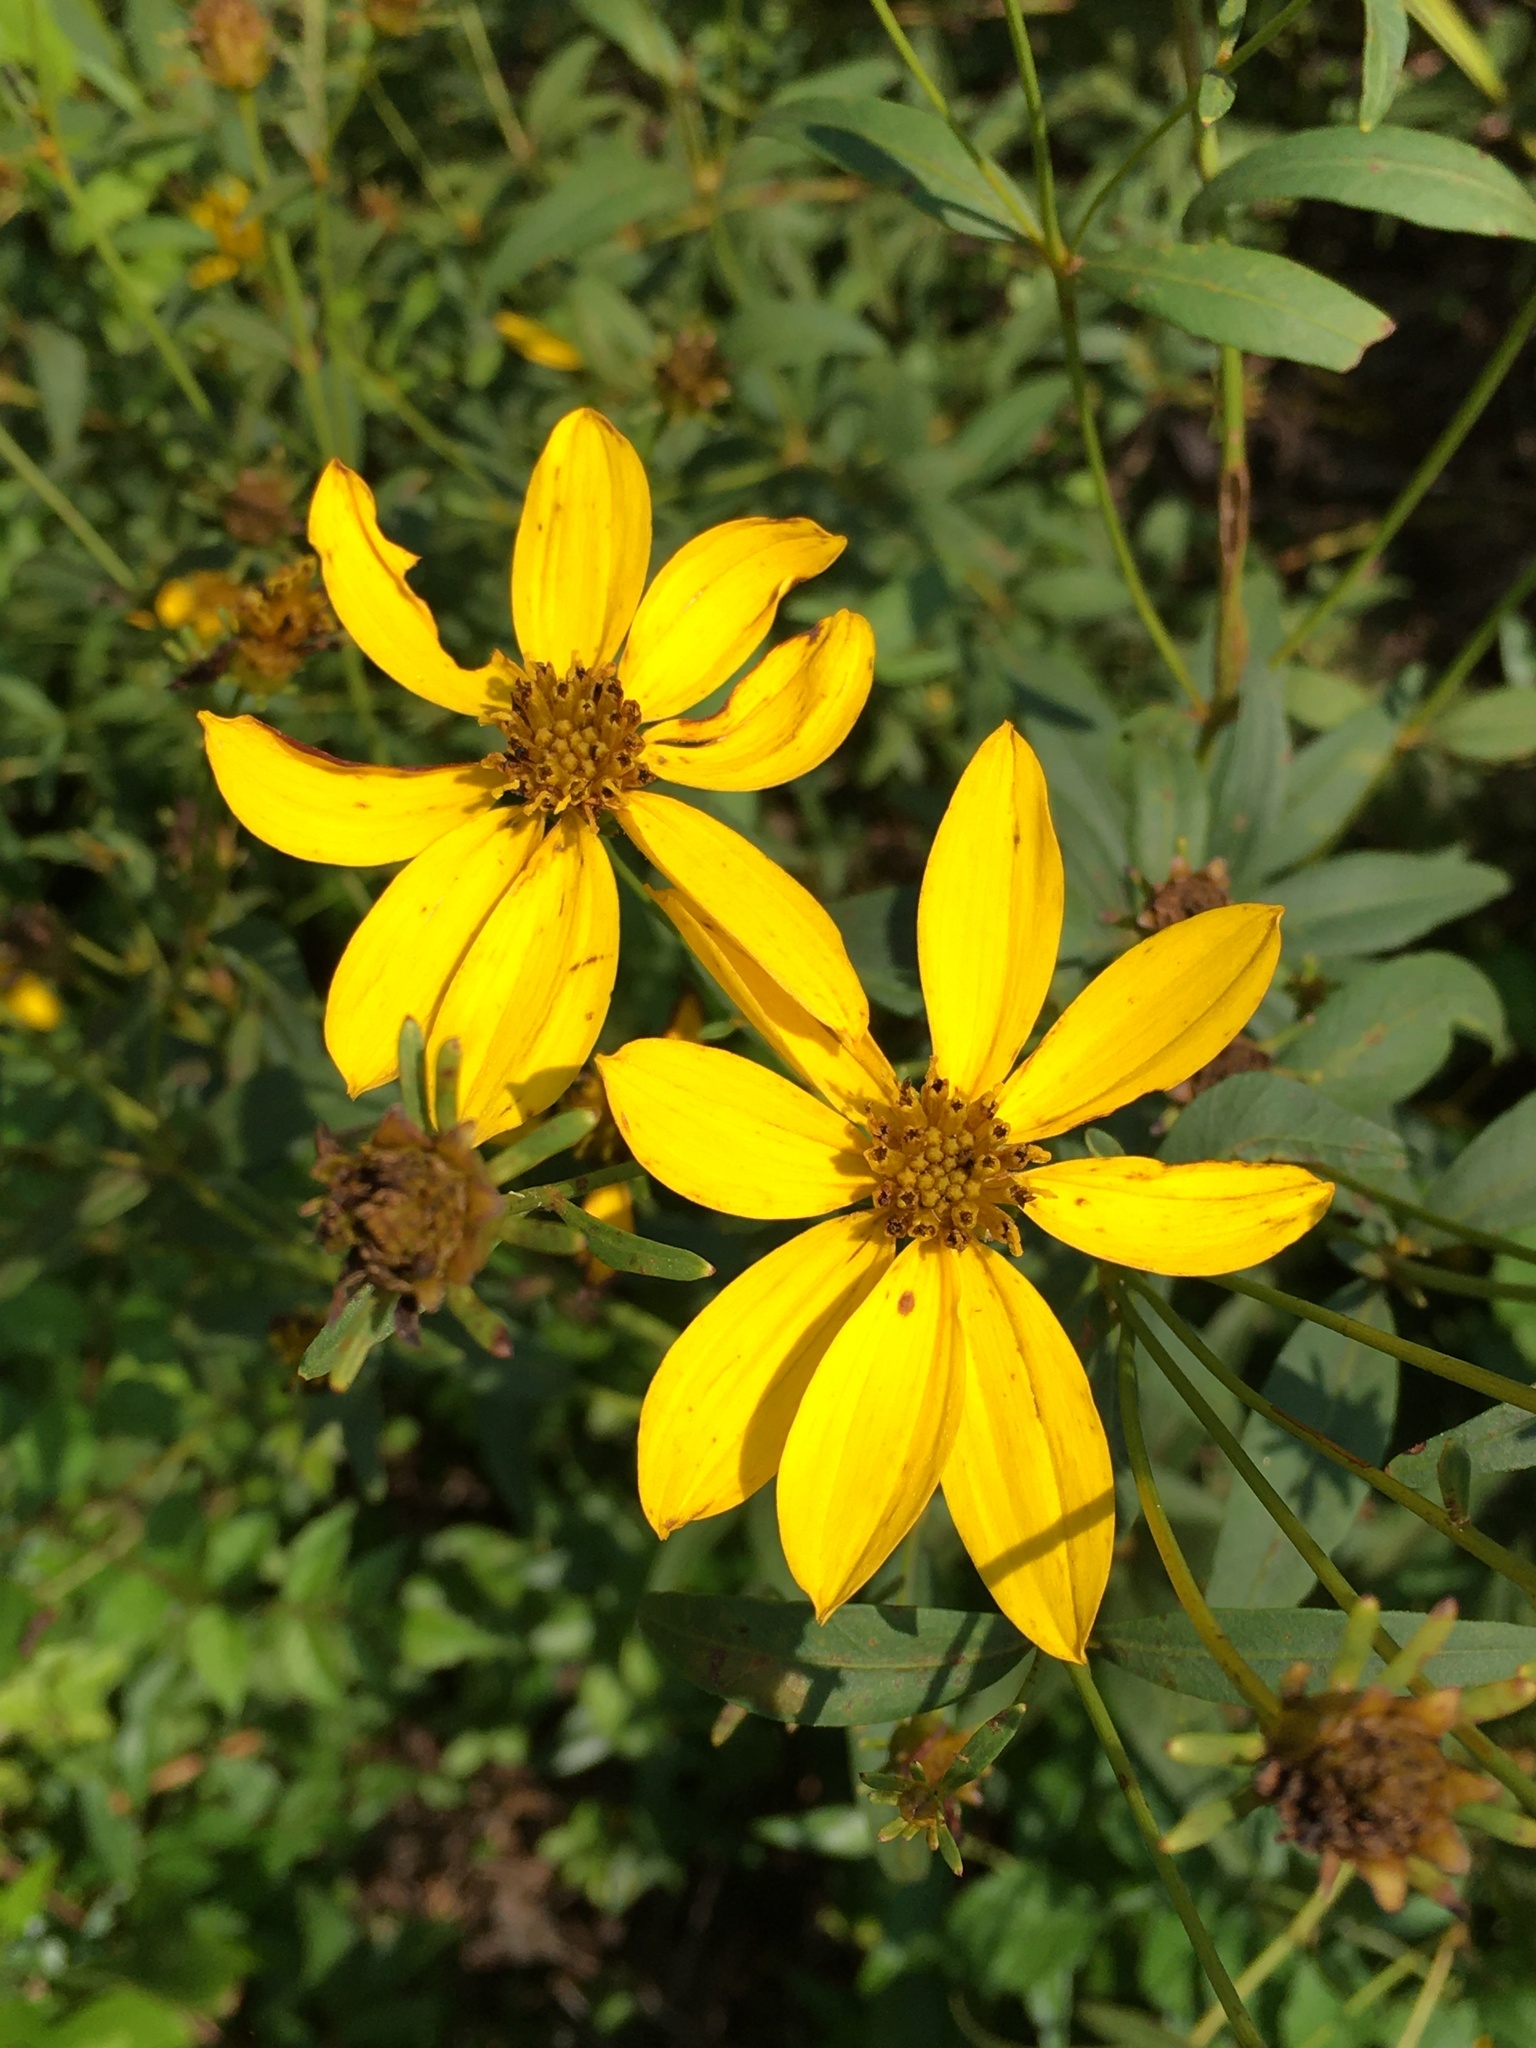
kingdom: Plantae
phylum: Tracheophyta
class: Magnoliopsida
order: Asterales
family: Asteraceae
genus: Coreopsis
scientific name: Coreopsis major
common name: Forest tickseed
